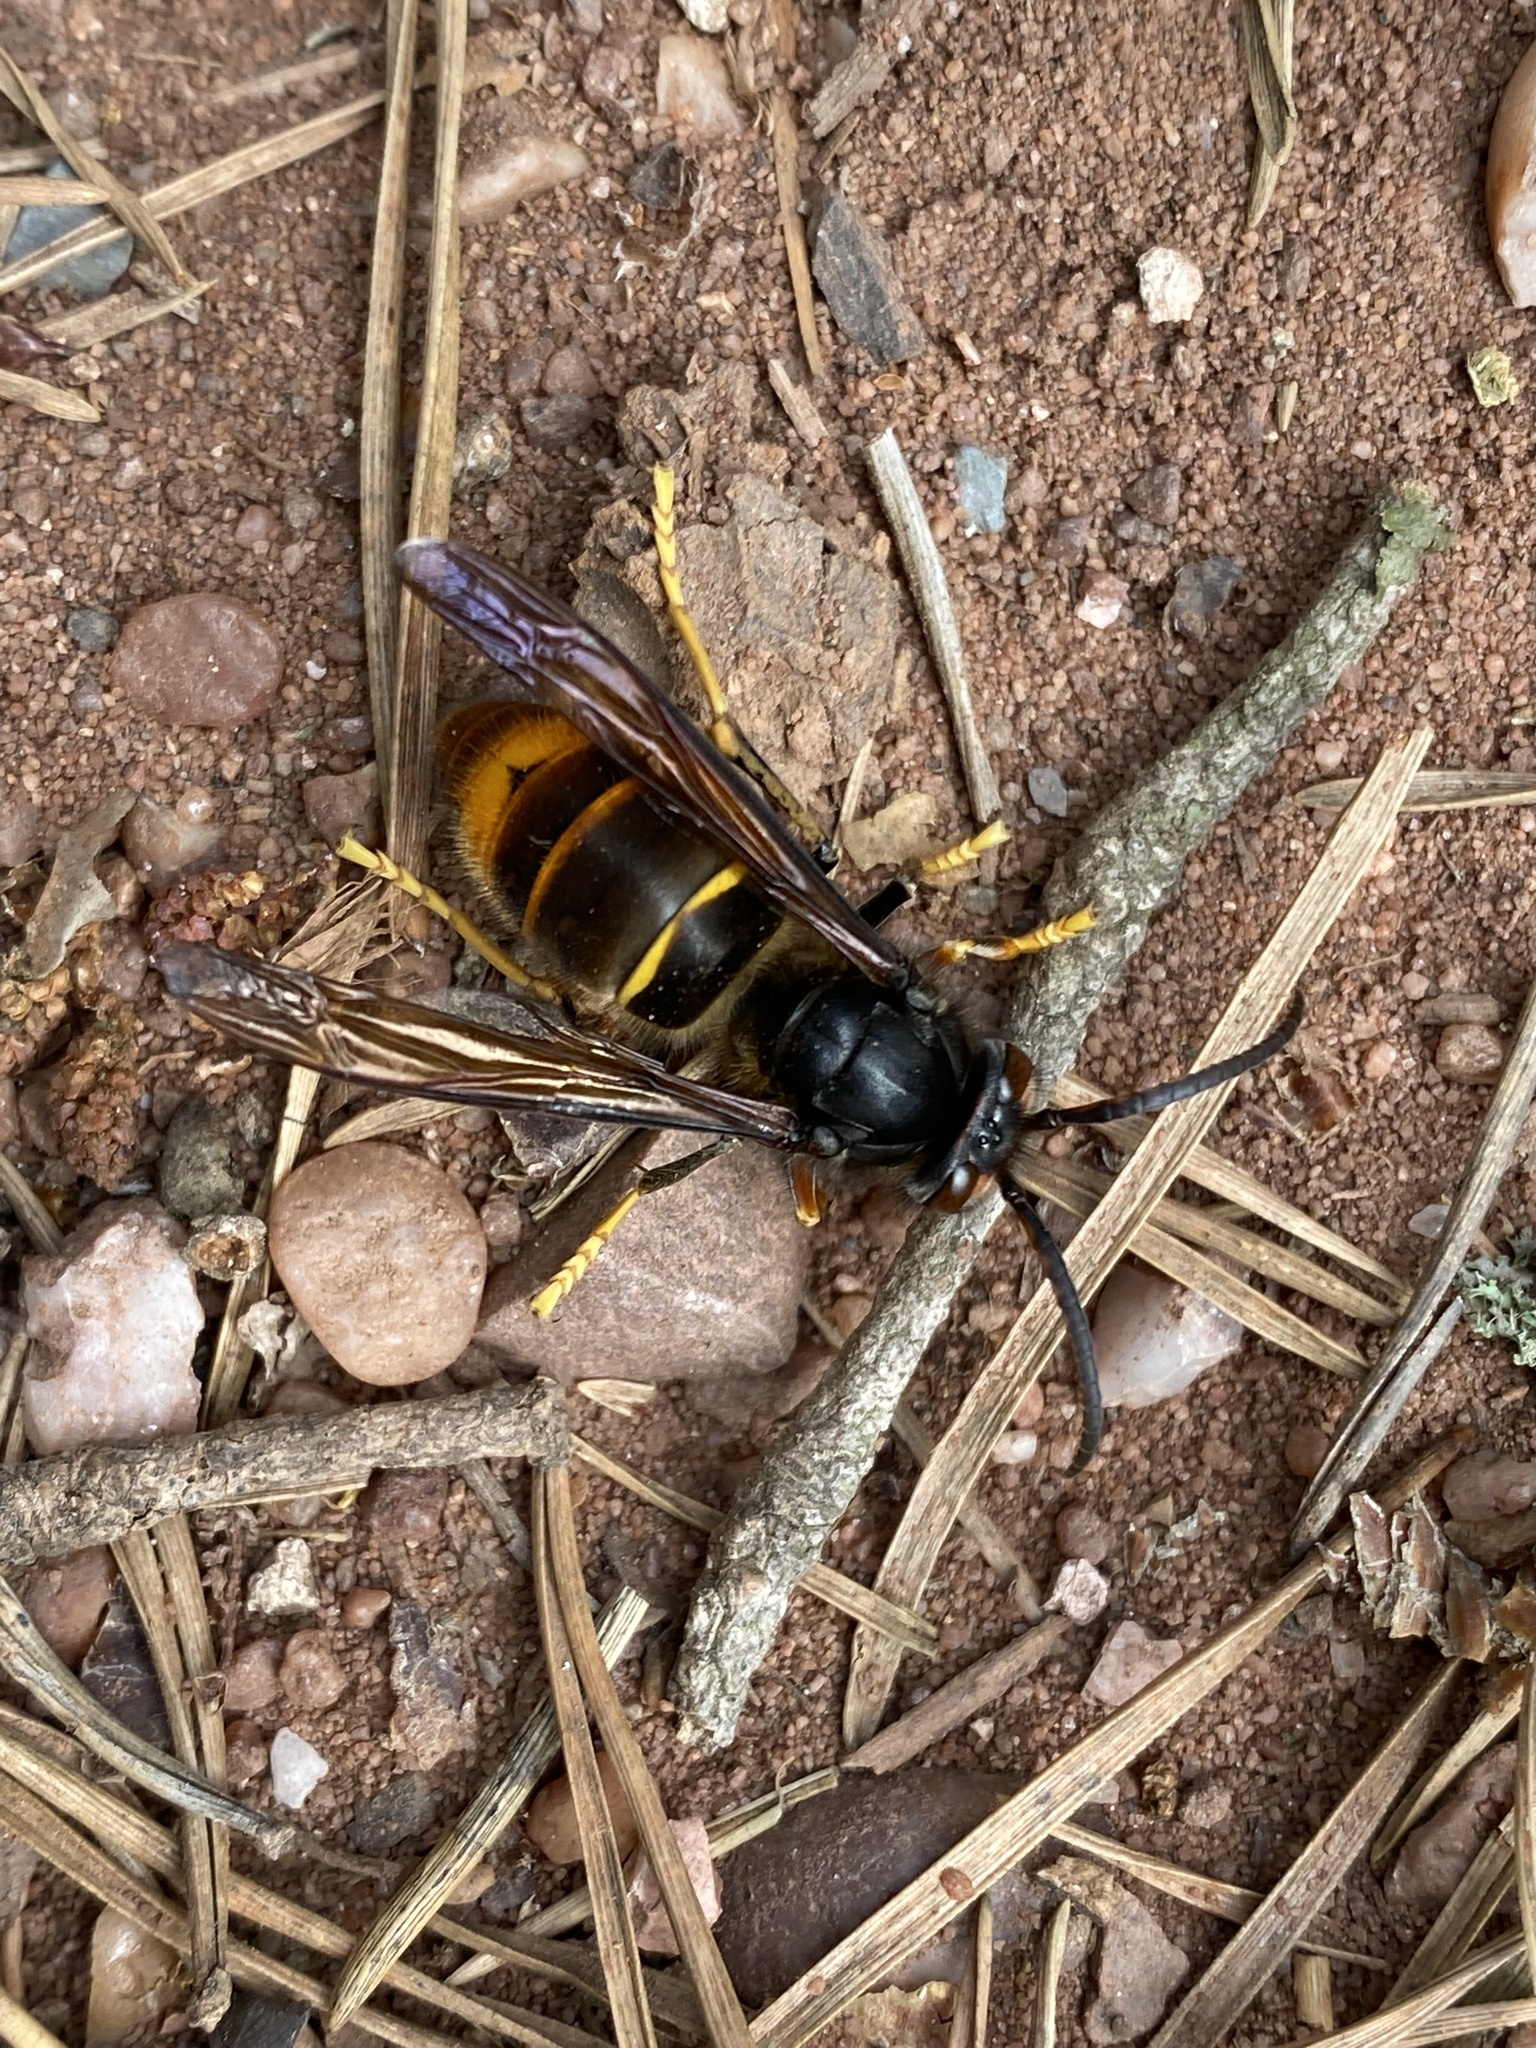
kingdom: Animalia
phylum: Arthropoda
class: Insecta
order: Hymenoptera
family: Vespidae
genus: Vespa
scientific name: Vespa velutina
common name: Asian hornet
